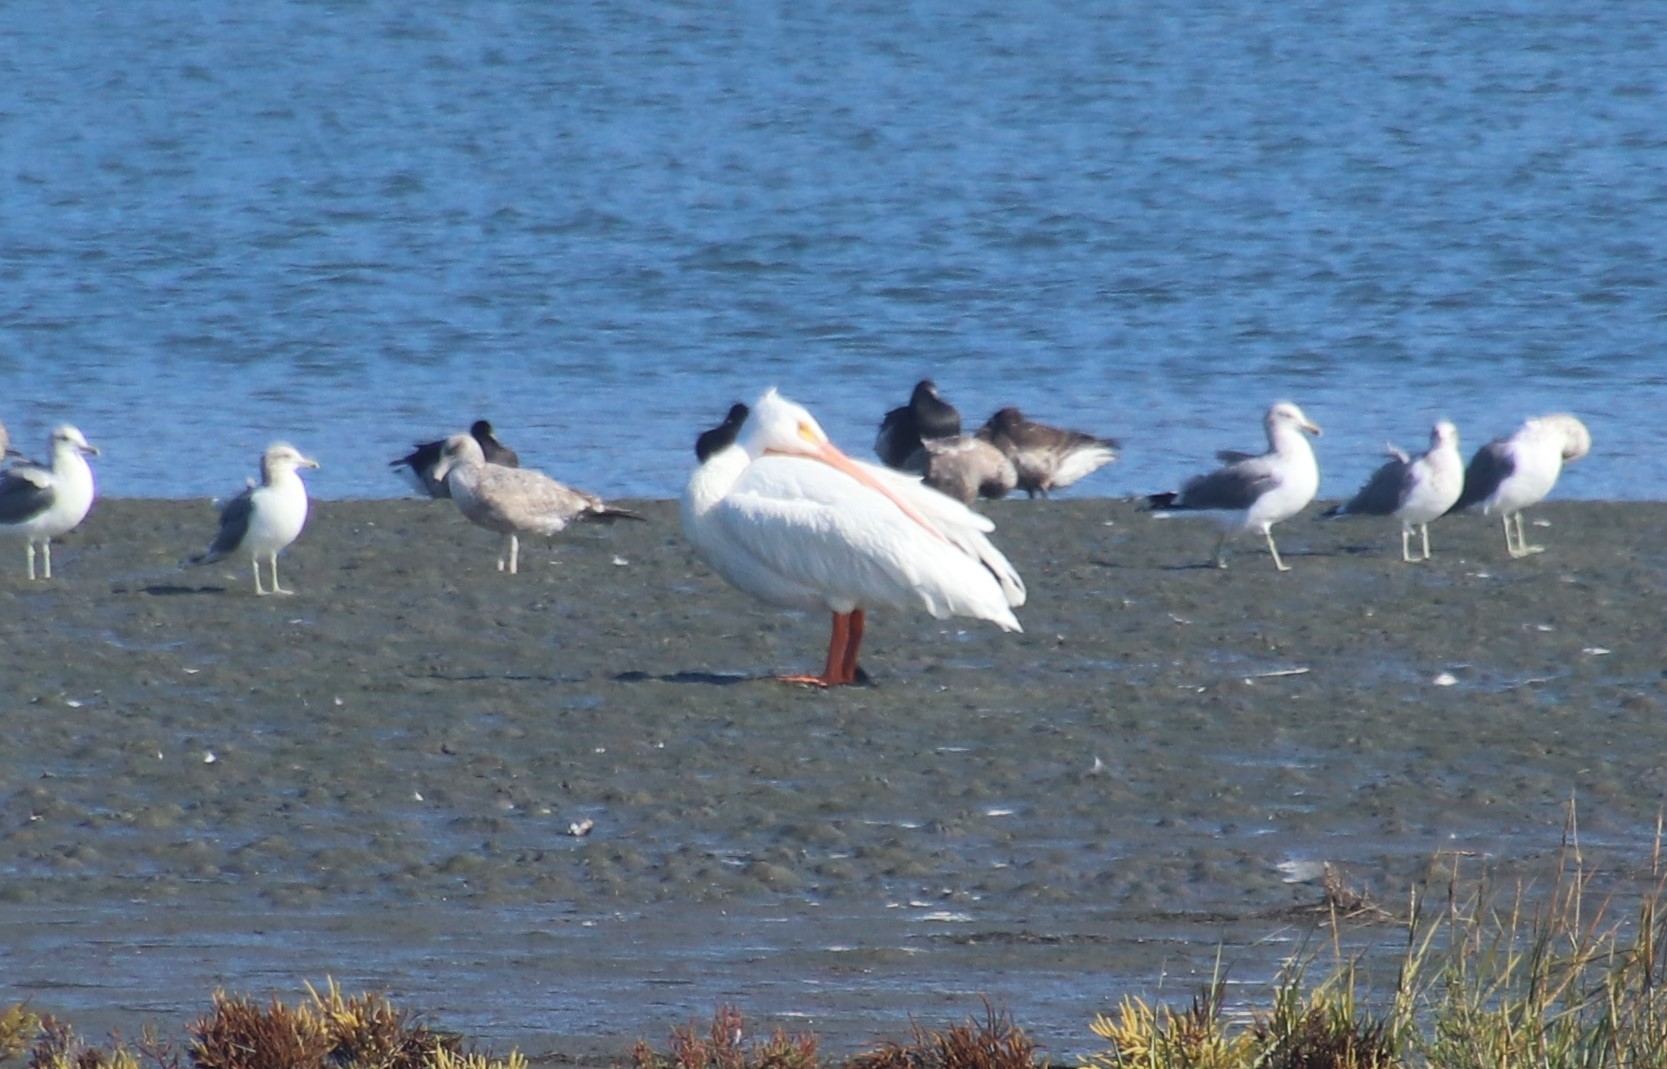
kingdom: Animalia
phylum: Chordata
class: Aves
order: Pelecaniformes
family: Pelecanidae
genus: Pelecanus
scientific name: Pelecanus erythrorhynchos
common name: American white pelican
